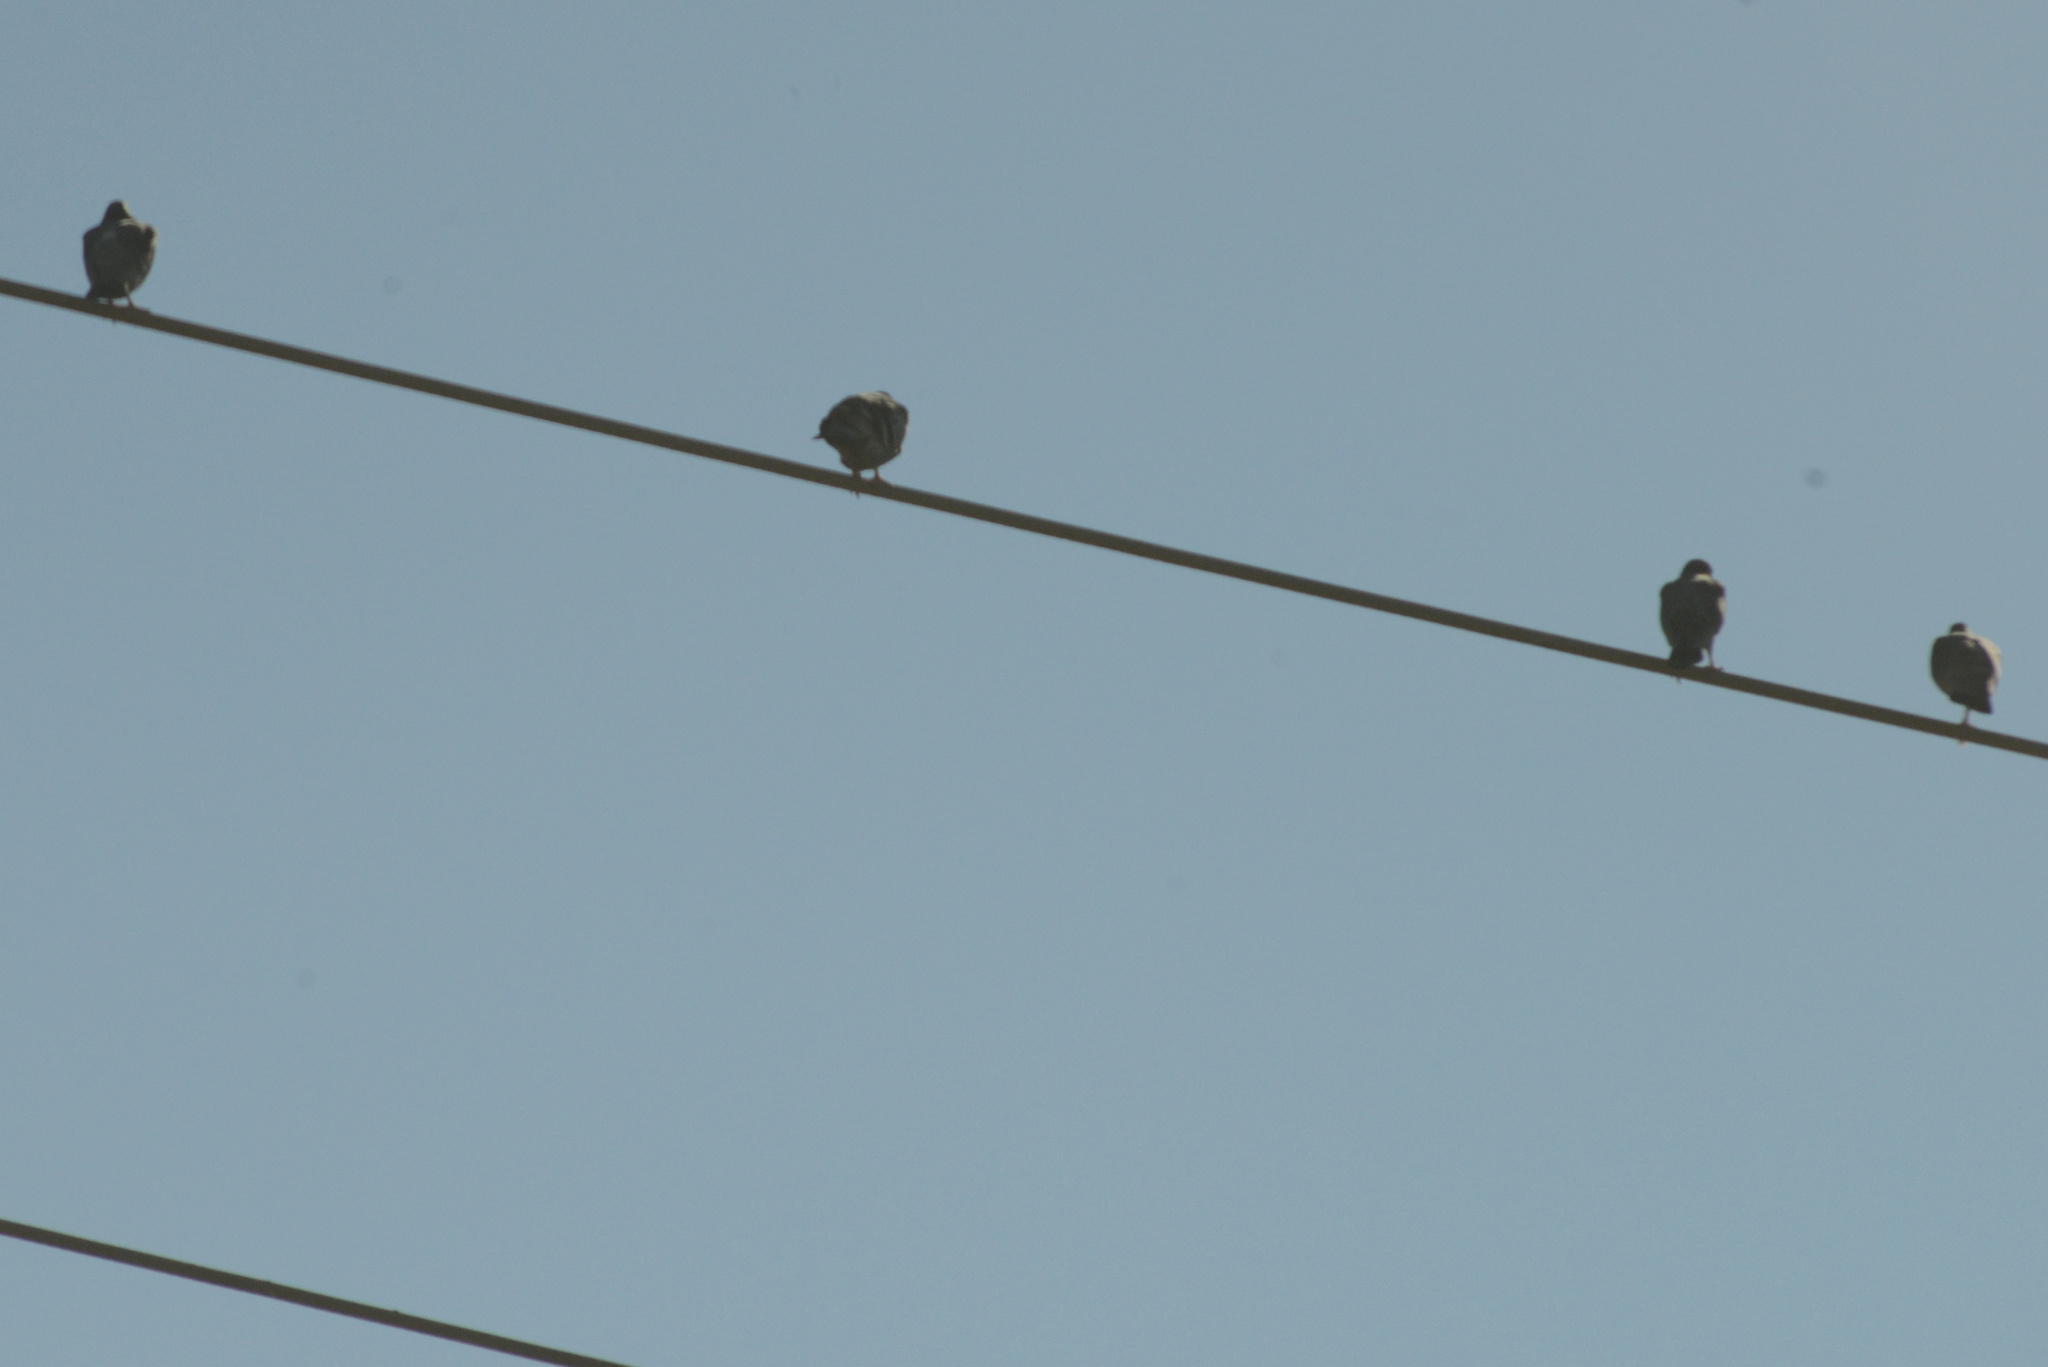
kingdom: Animalia
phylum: Chordata
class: Aves
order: Columbiformes
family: Columbidae
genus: Columba
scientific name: Columba livia
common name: Rock pigeon
